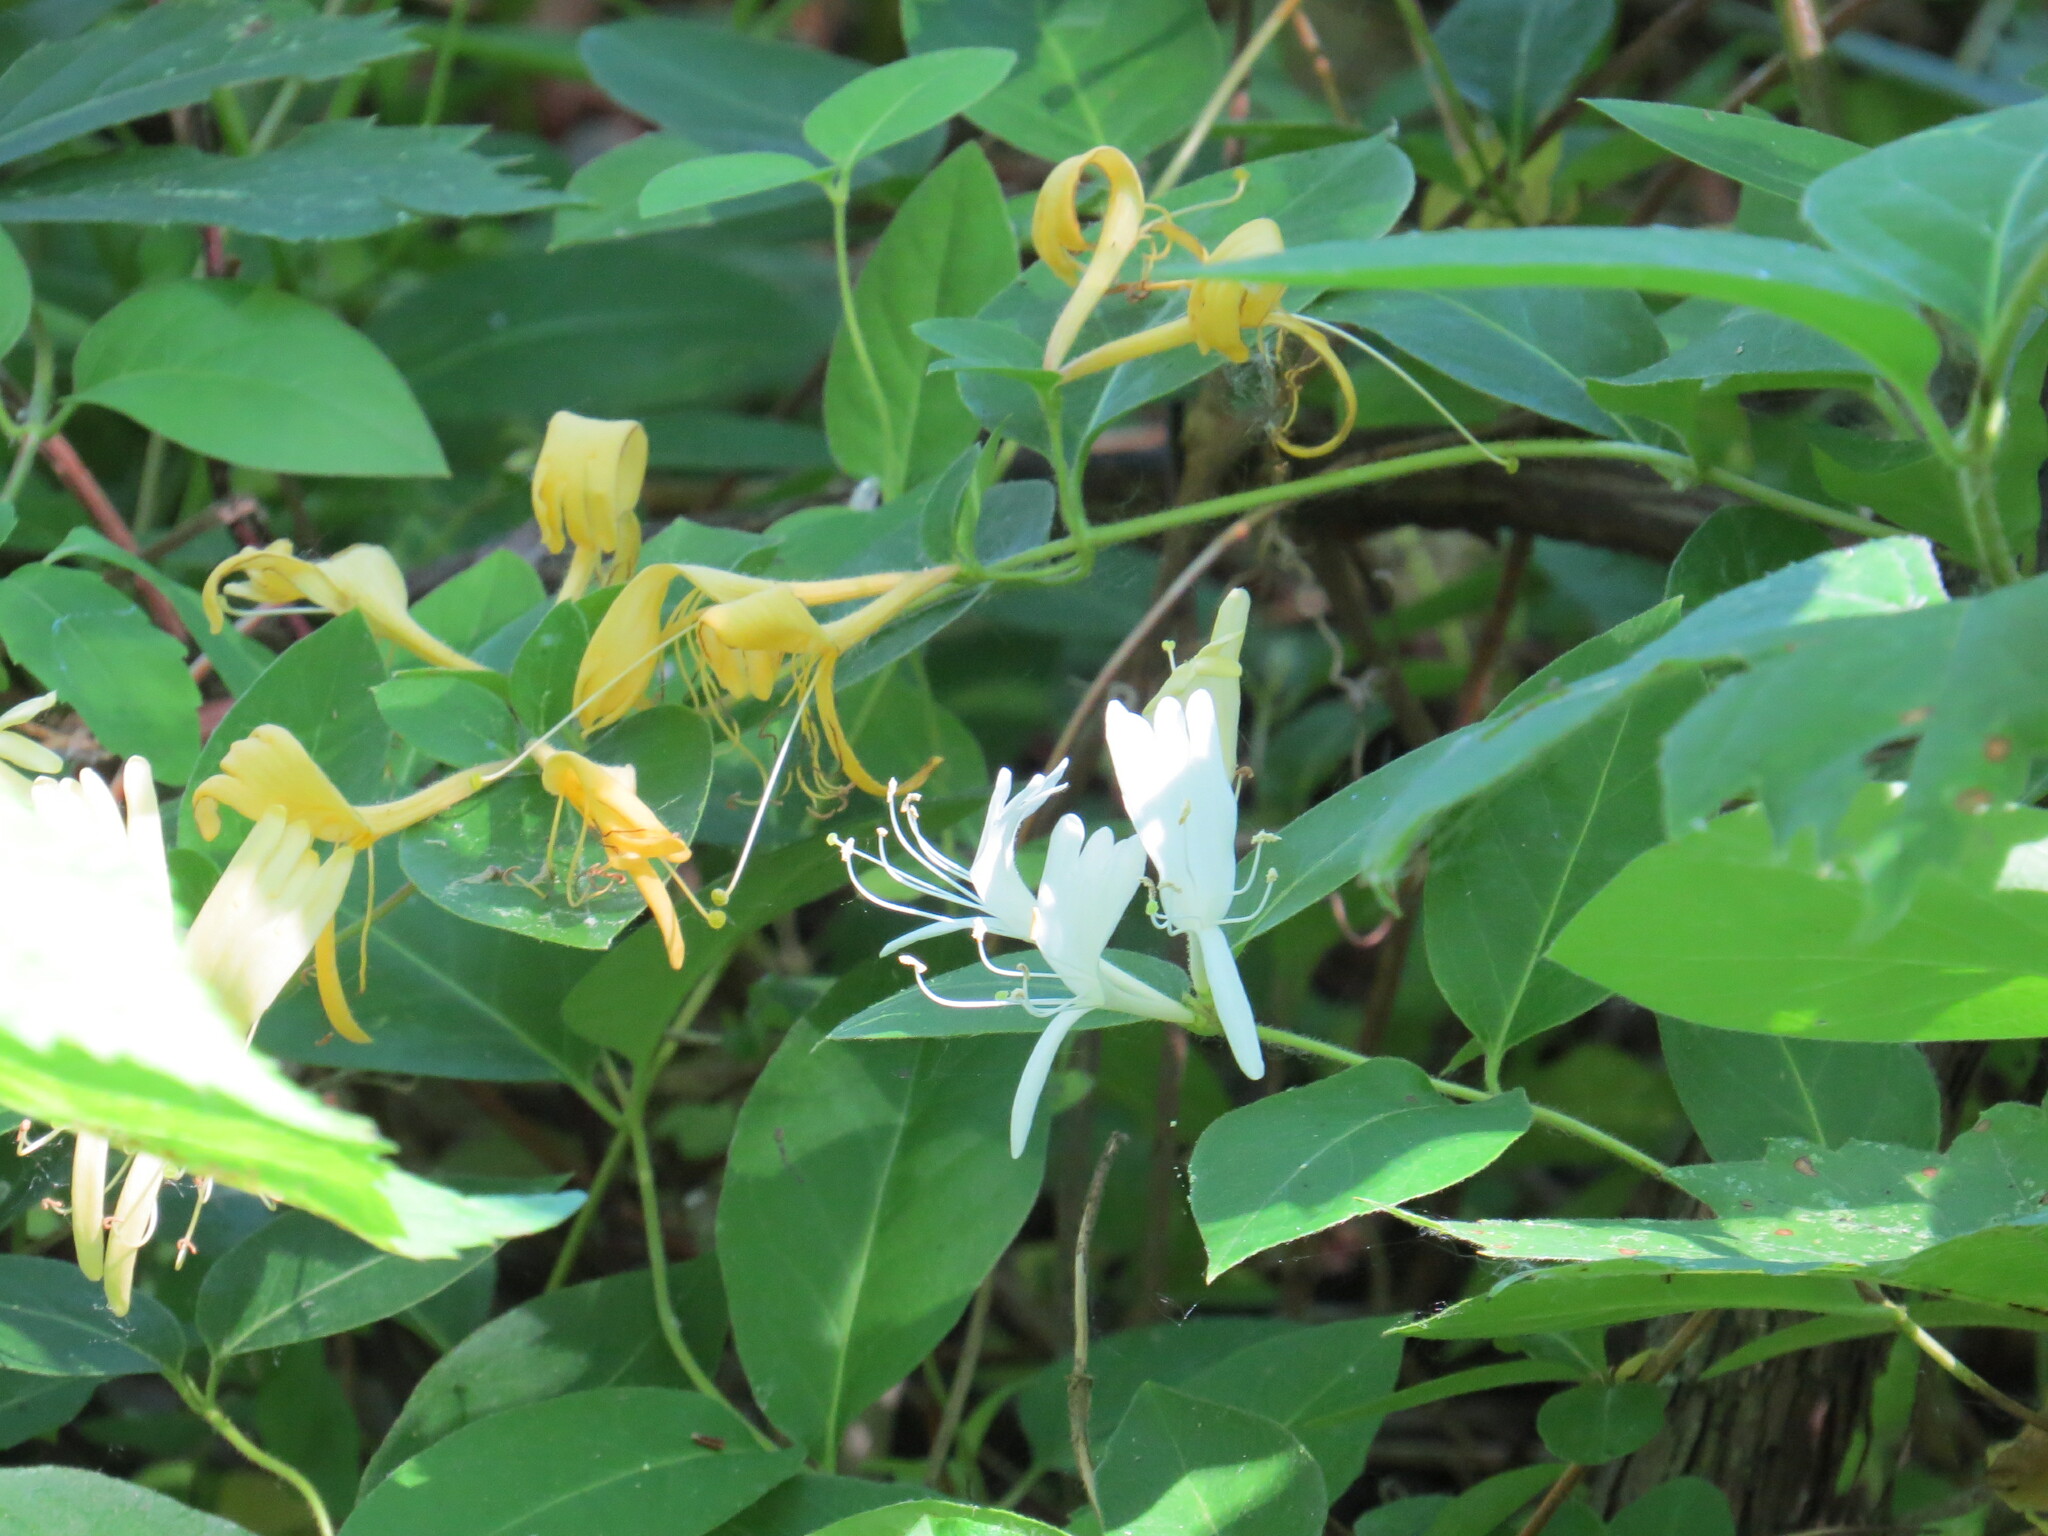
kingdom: Plantae
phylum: Tracheophyta
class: Magnoliopsida
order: Dipsacales
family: Caprifoliaceae
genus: Lonicera
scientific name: Lonicera japonica
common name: Japanese honeysuckle
